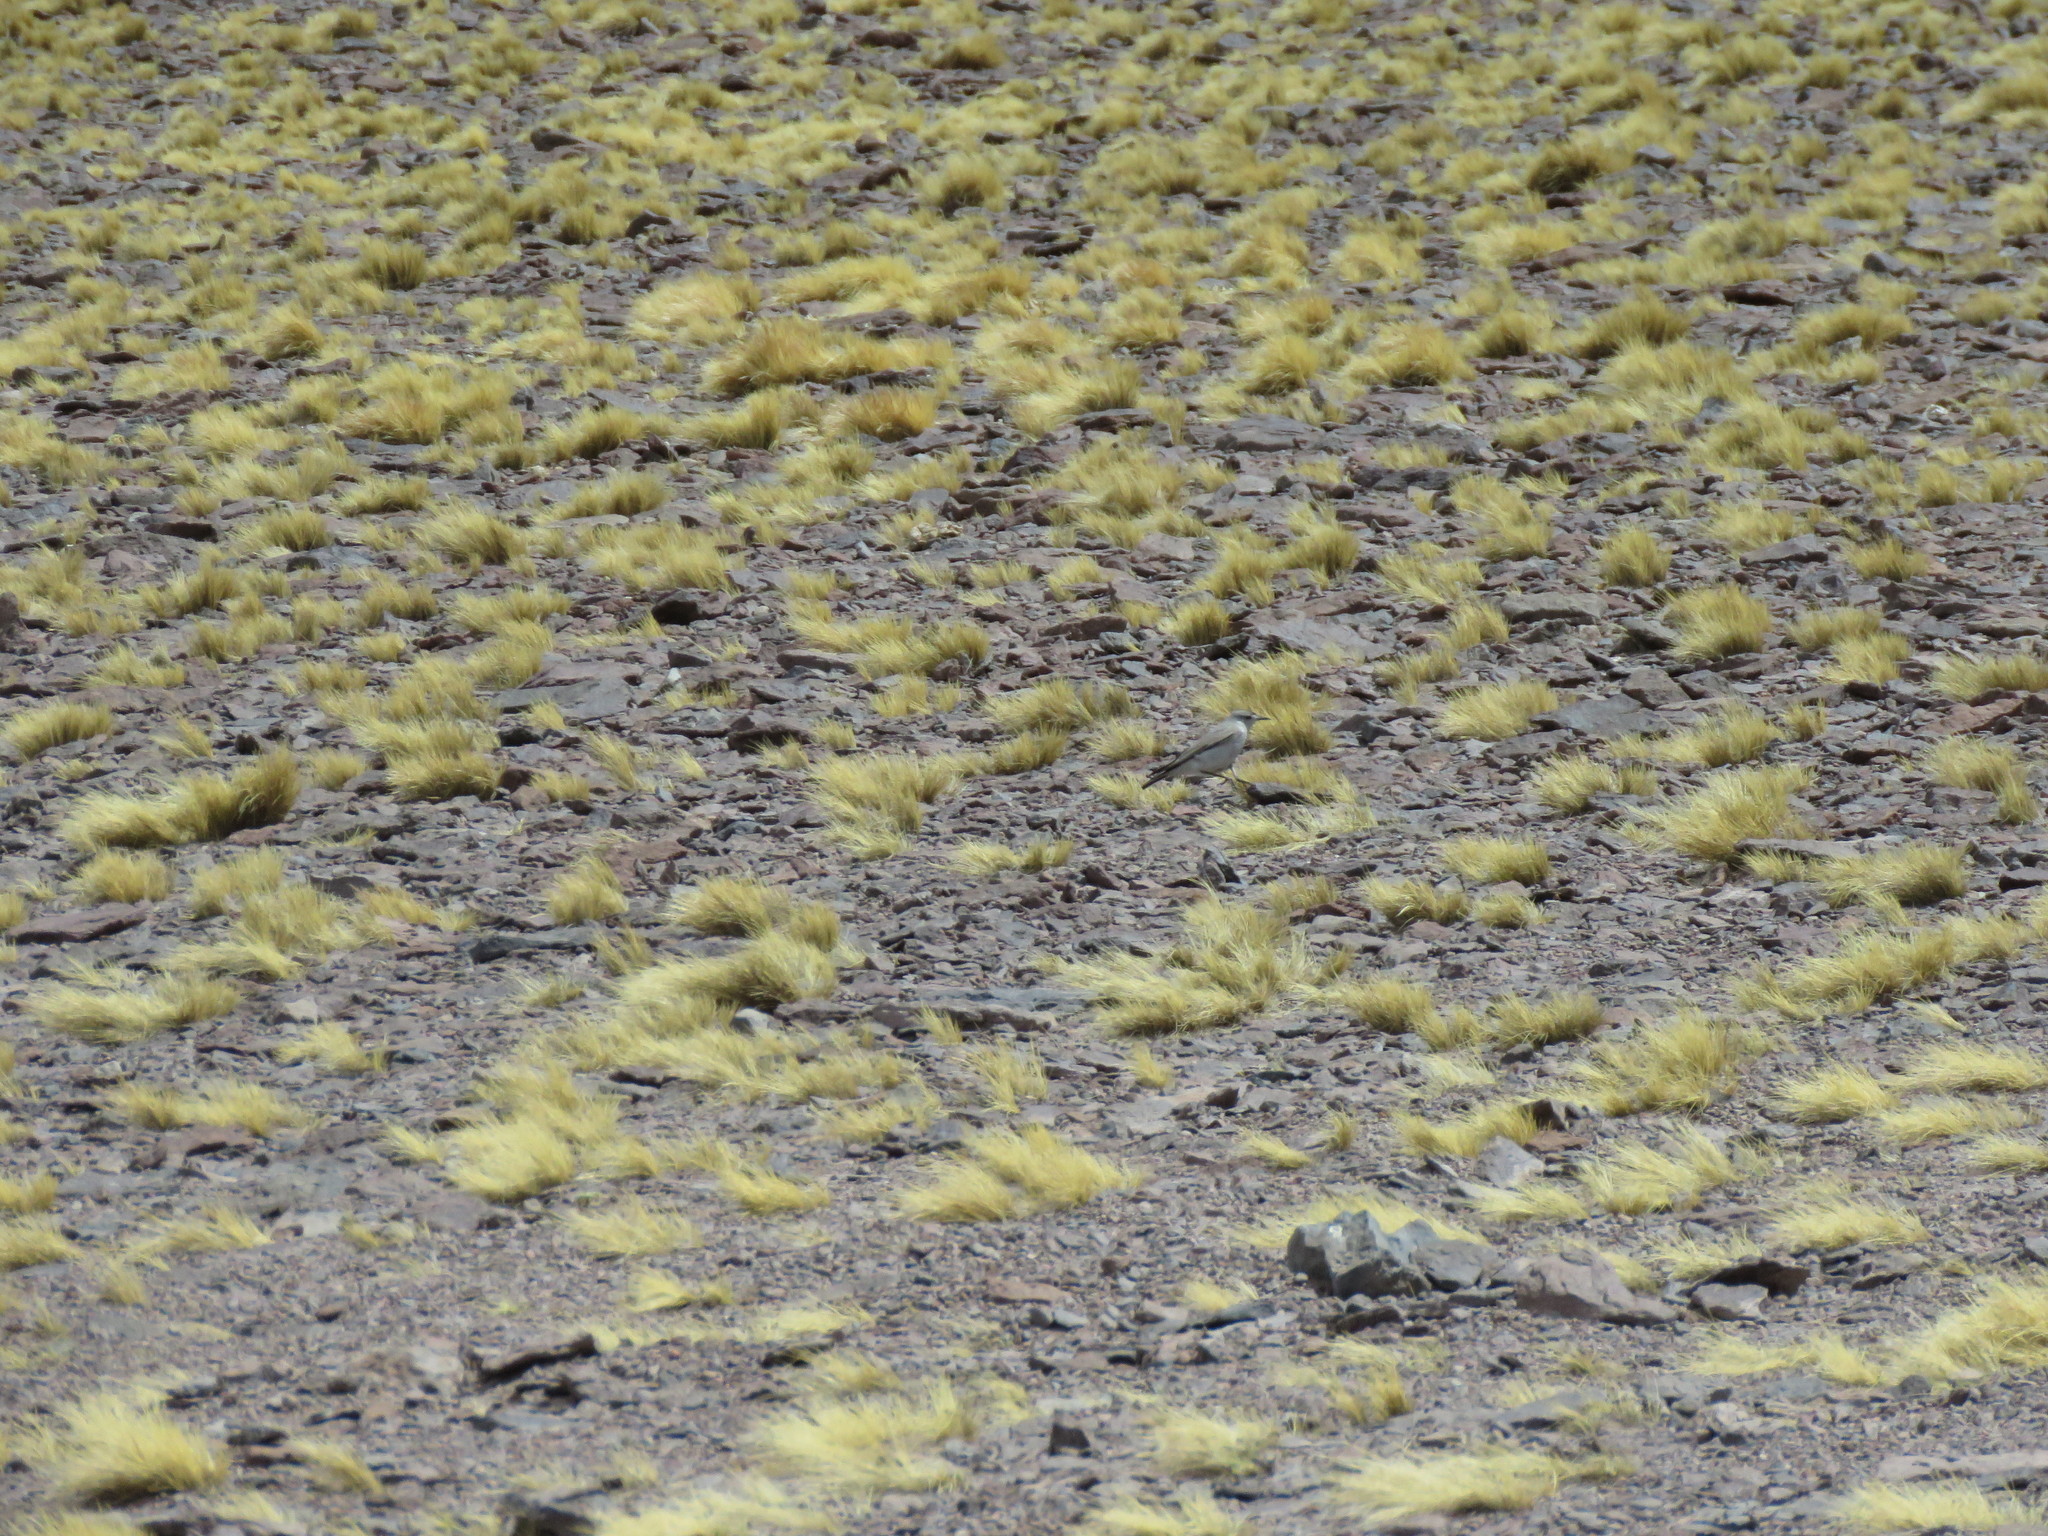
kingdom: Animalia
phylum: Chordata
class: Aves
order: Passeriformes
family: Tyrannidae
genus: Muscisaxicola
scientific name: Muscisaxicola frontalis
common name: Black-fronted ground tyrant
